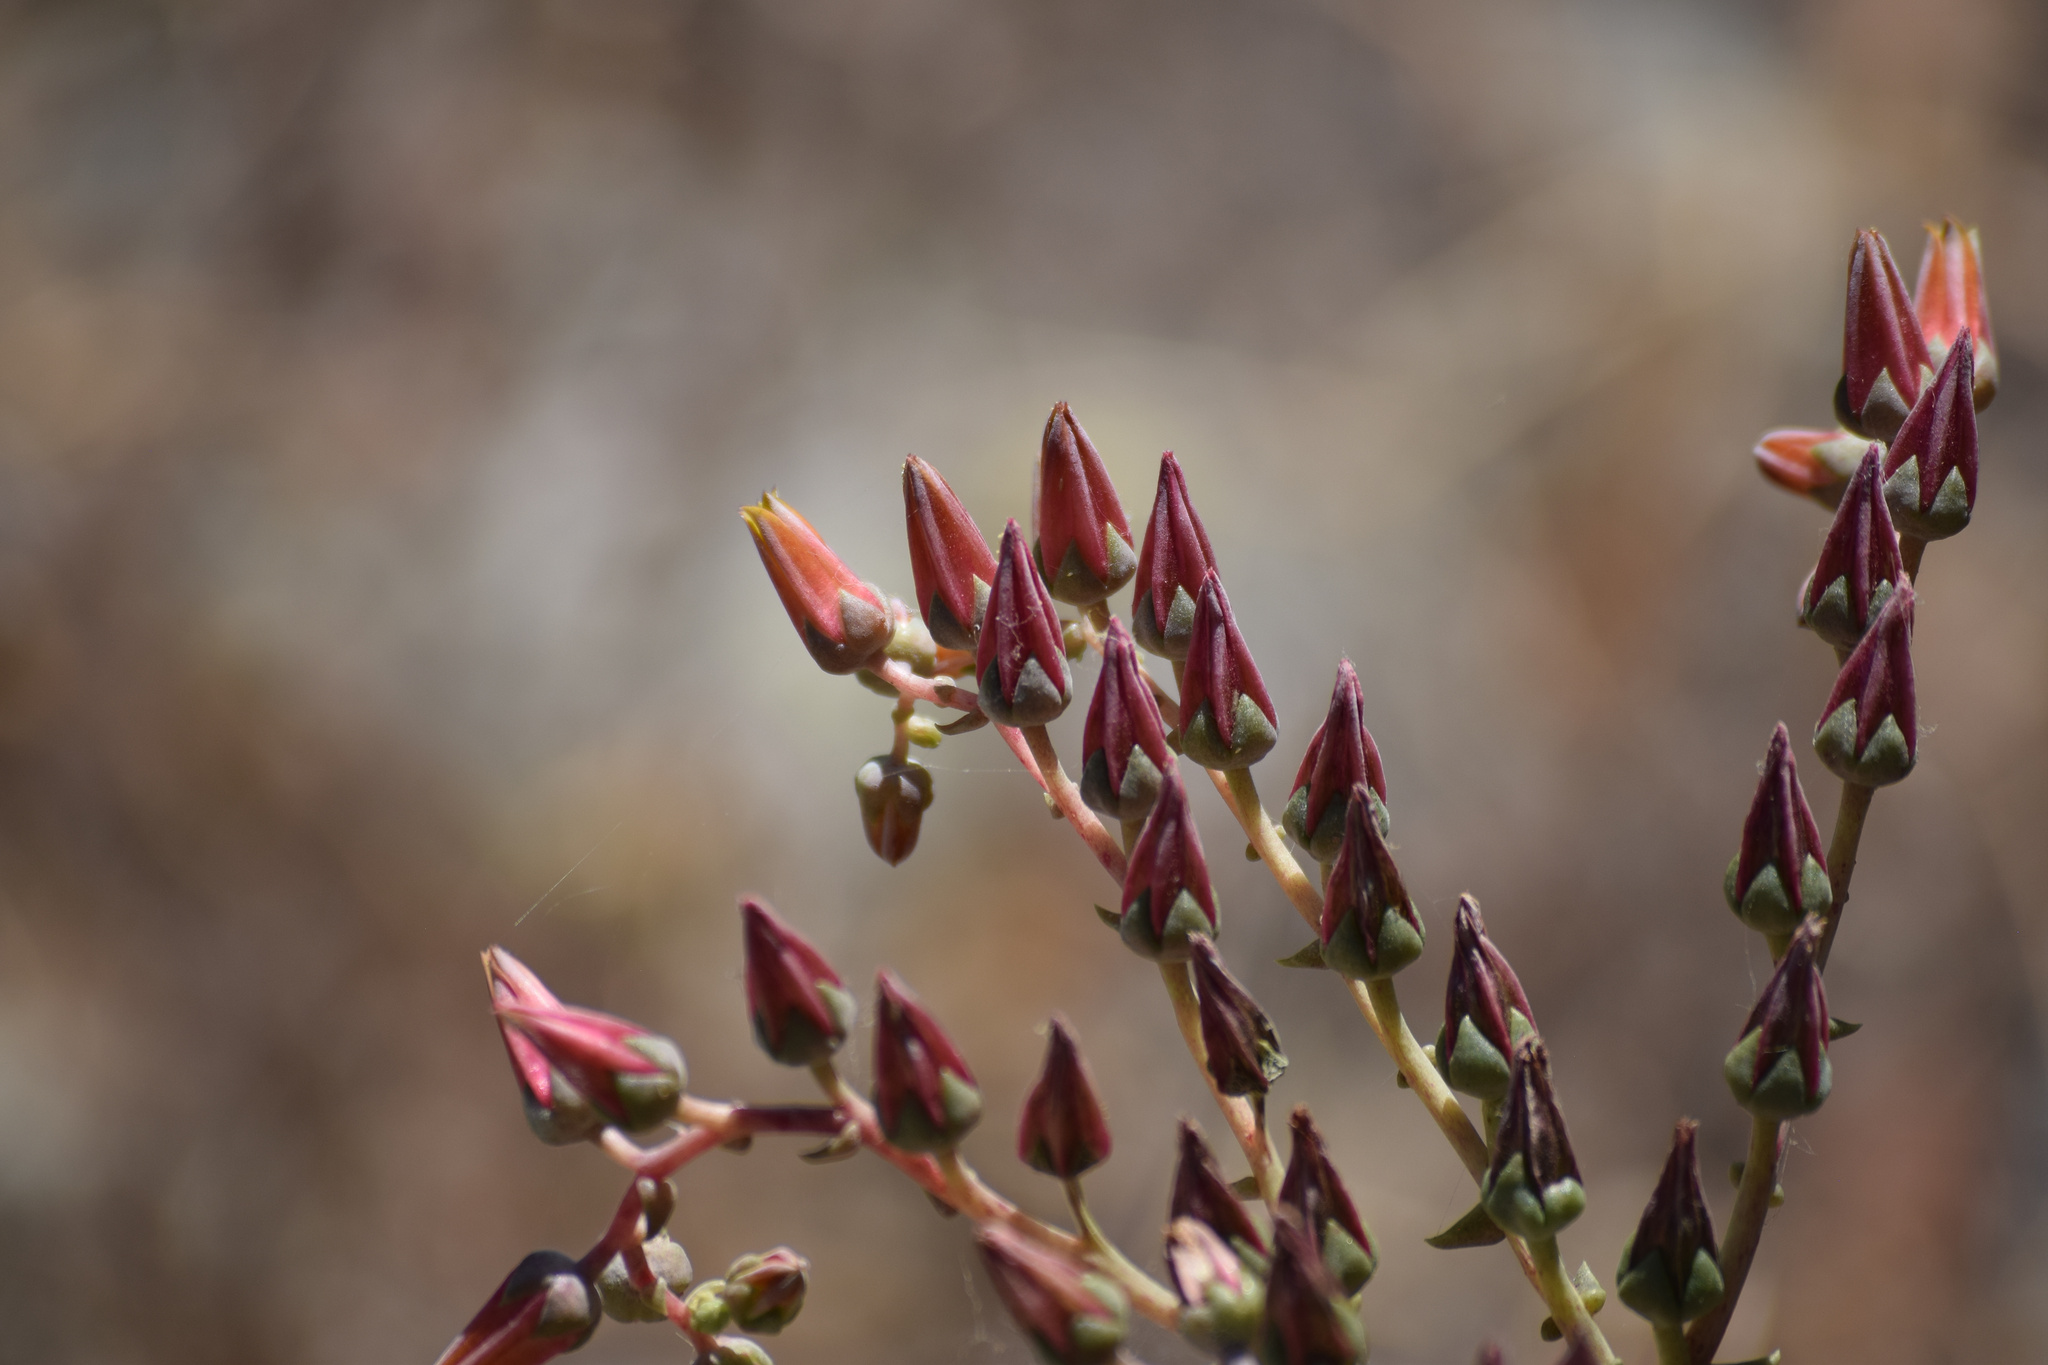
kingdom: Plantae
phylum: Tracheophyta
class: Magnoliopsida
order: Saxifragales
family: Crassulaceae
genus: Dudleya
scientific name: Dudleya lanceolata
